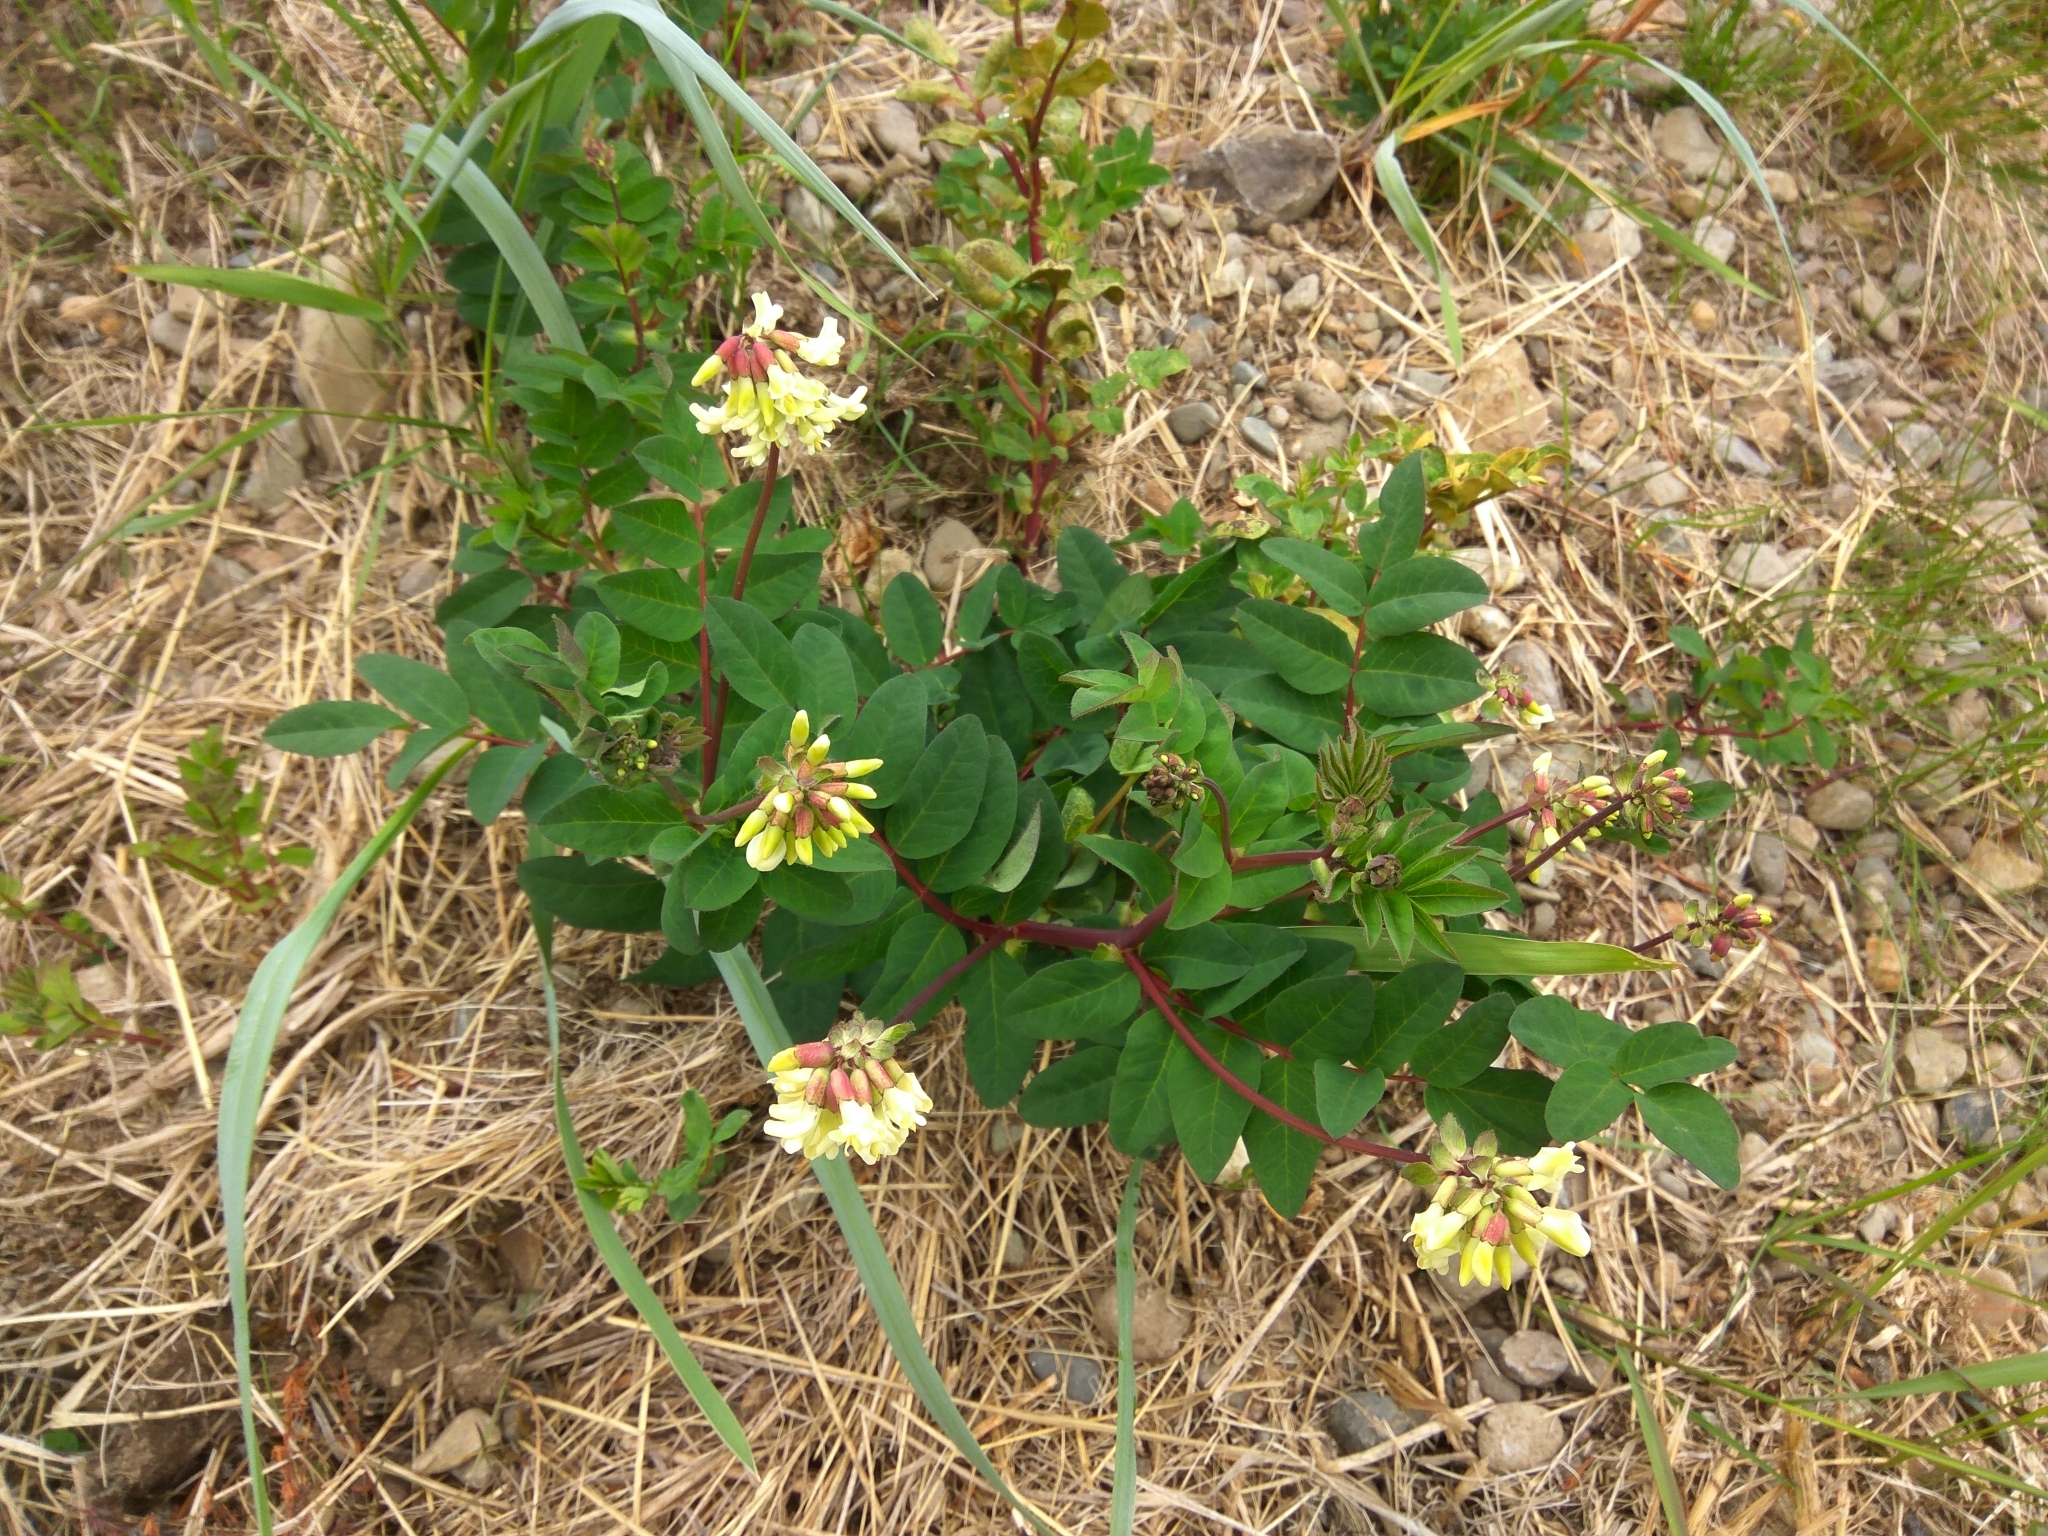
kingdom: Plantae
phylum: Tracheophyta
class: Magnoliopsida
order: Fabales
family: Fabaceae
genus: Astragalus
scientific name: Astragalus frigidus
